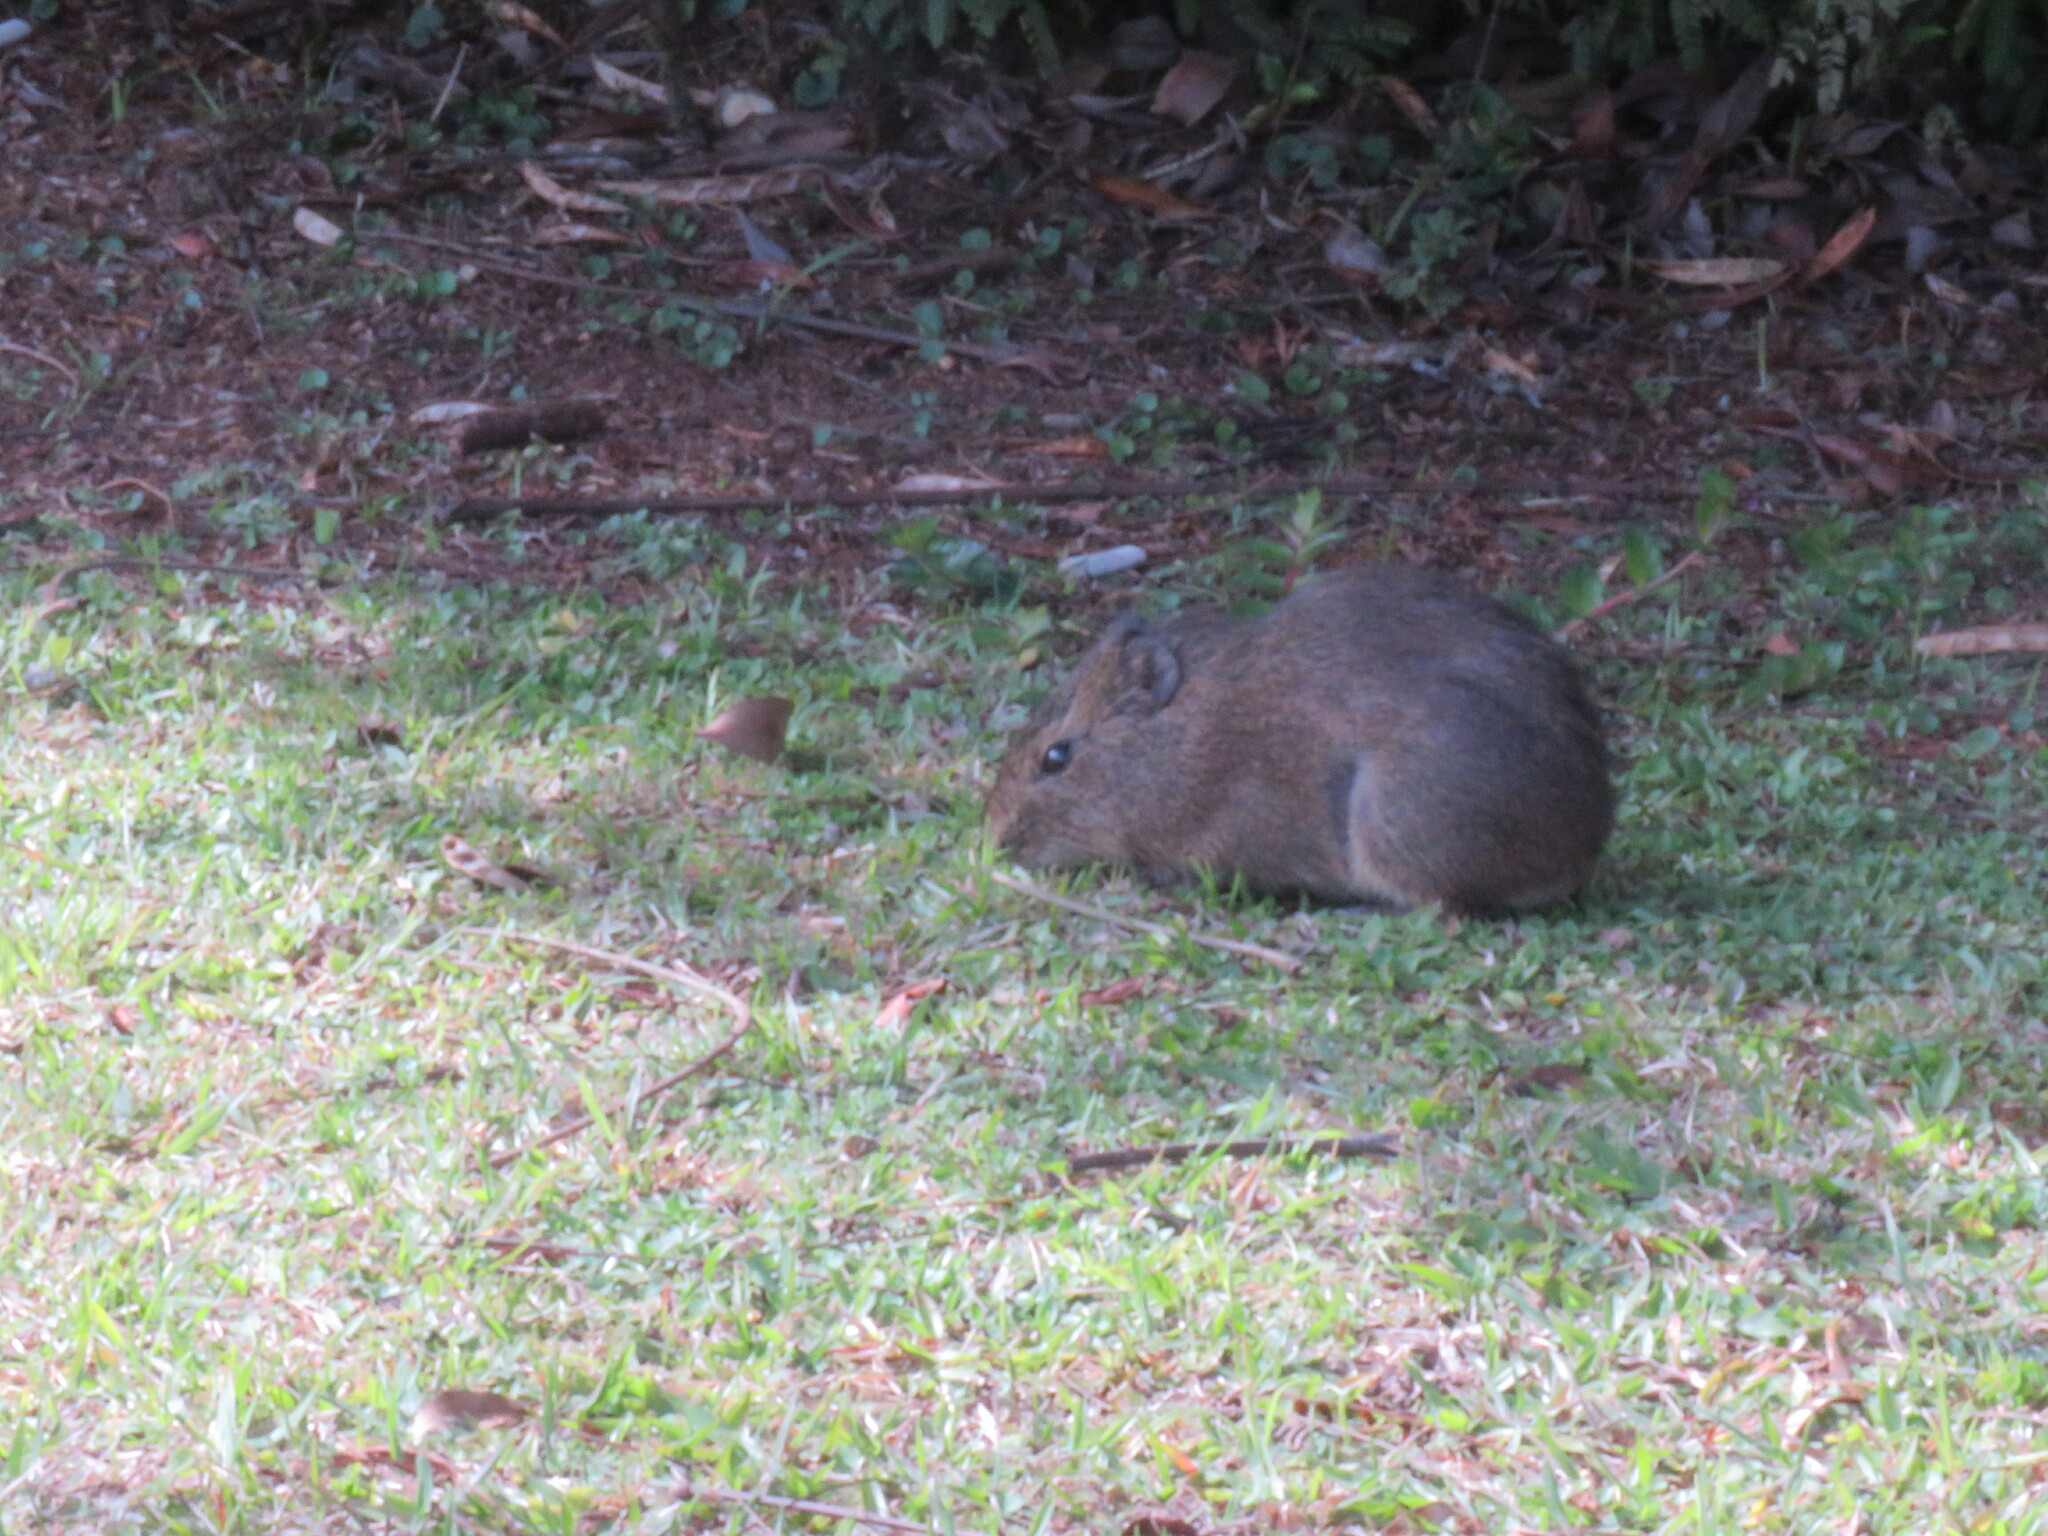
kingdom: Animalia
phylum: Chordata
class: Mammalia
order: Rodentia
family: Caviidae
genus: Cavia
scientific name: Cavia aperea
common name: Brazilian guinea pig
